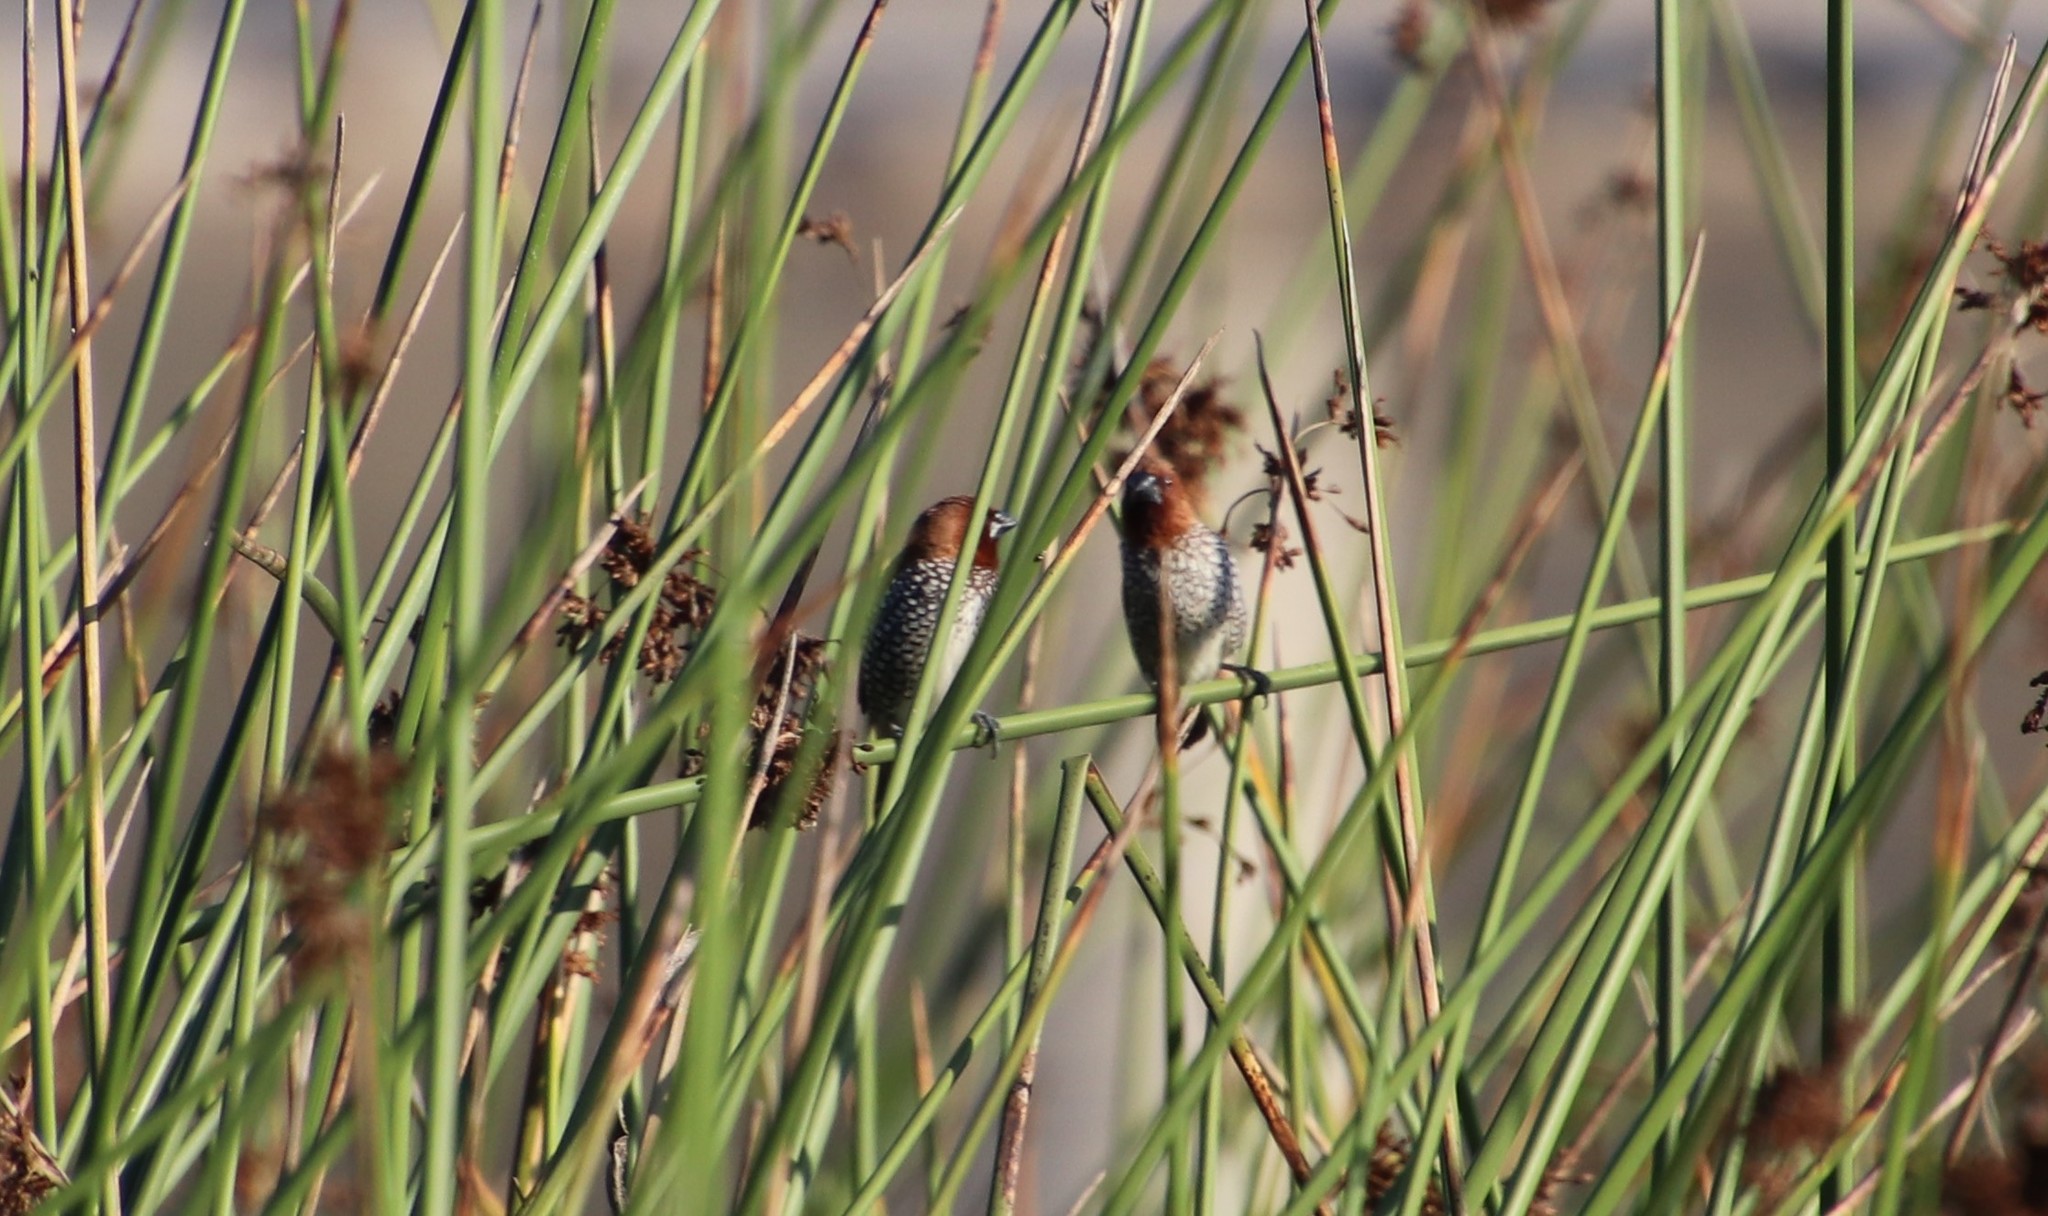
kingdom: Animalia
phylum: Chordata
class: Aves
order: Passeriformes
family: Estrildidae
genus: Lonchura
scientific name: Lonchura punctulata
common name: Scaly-breasted munia
